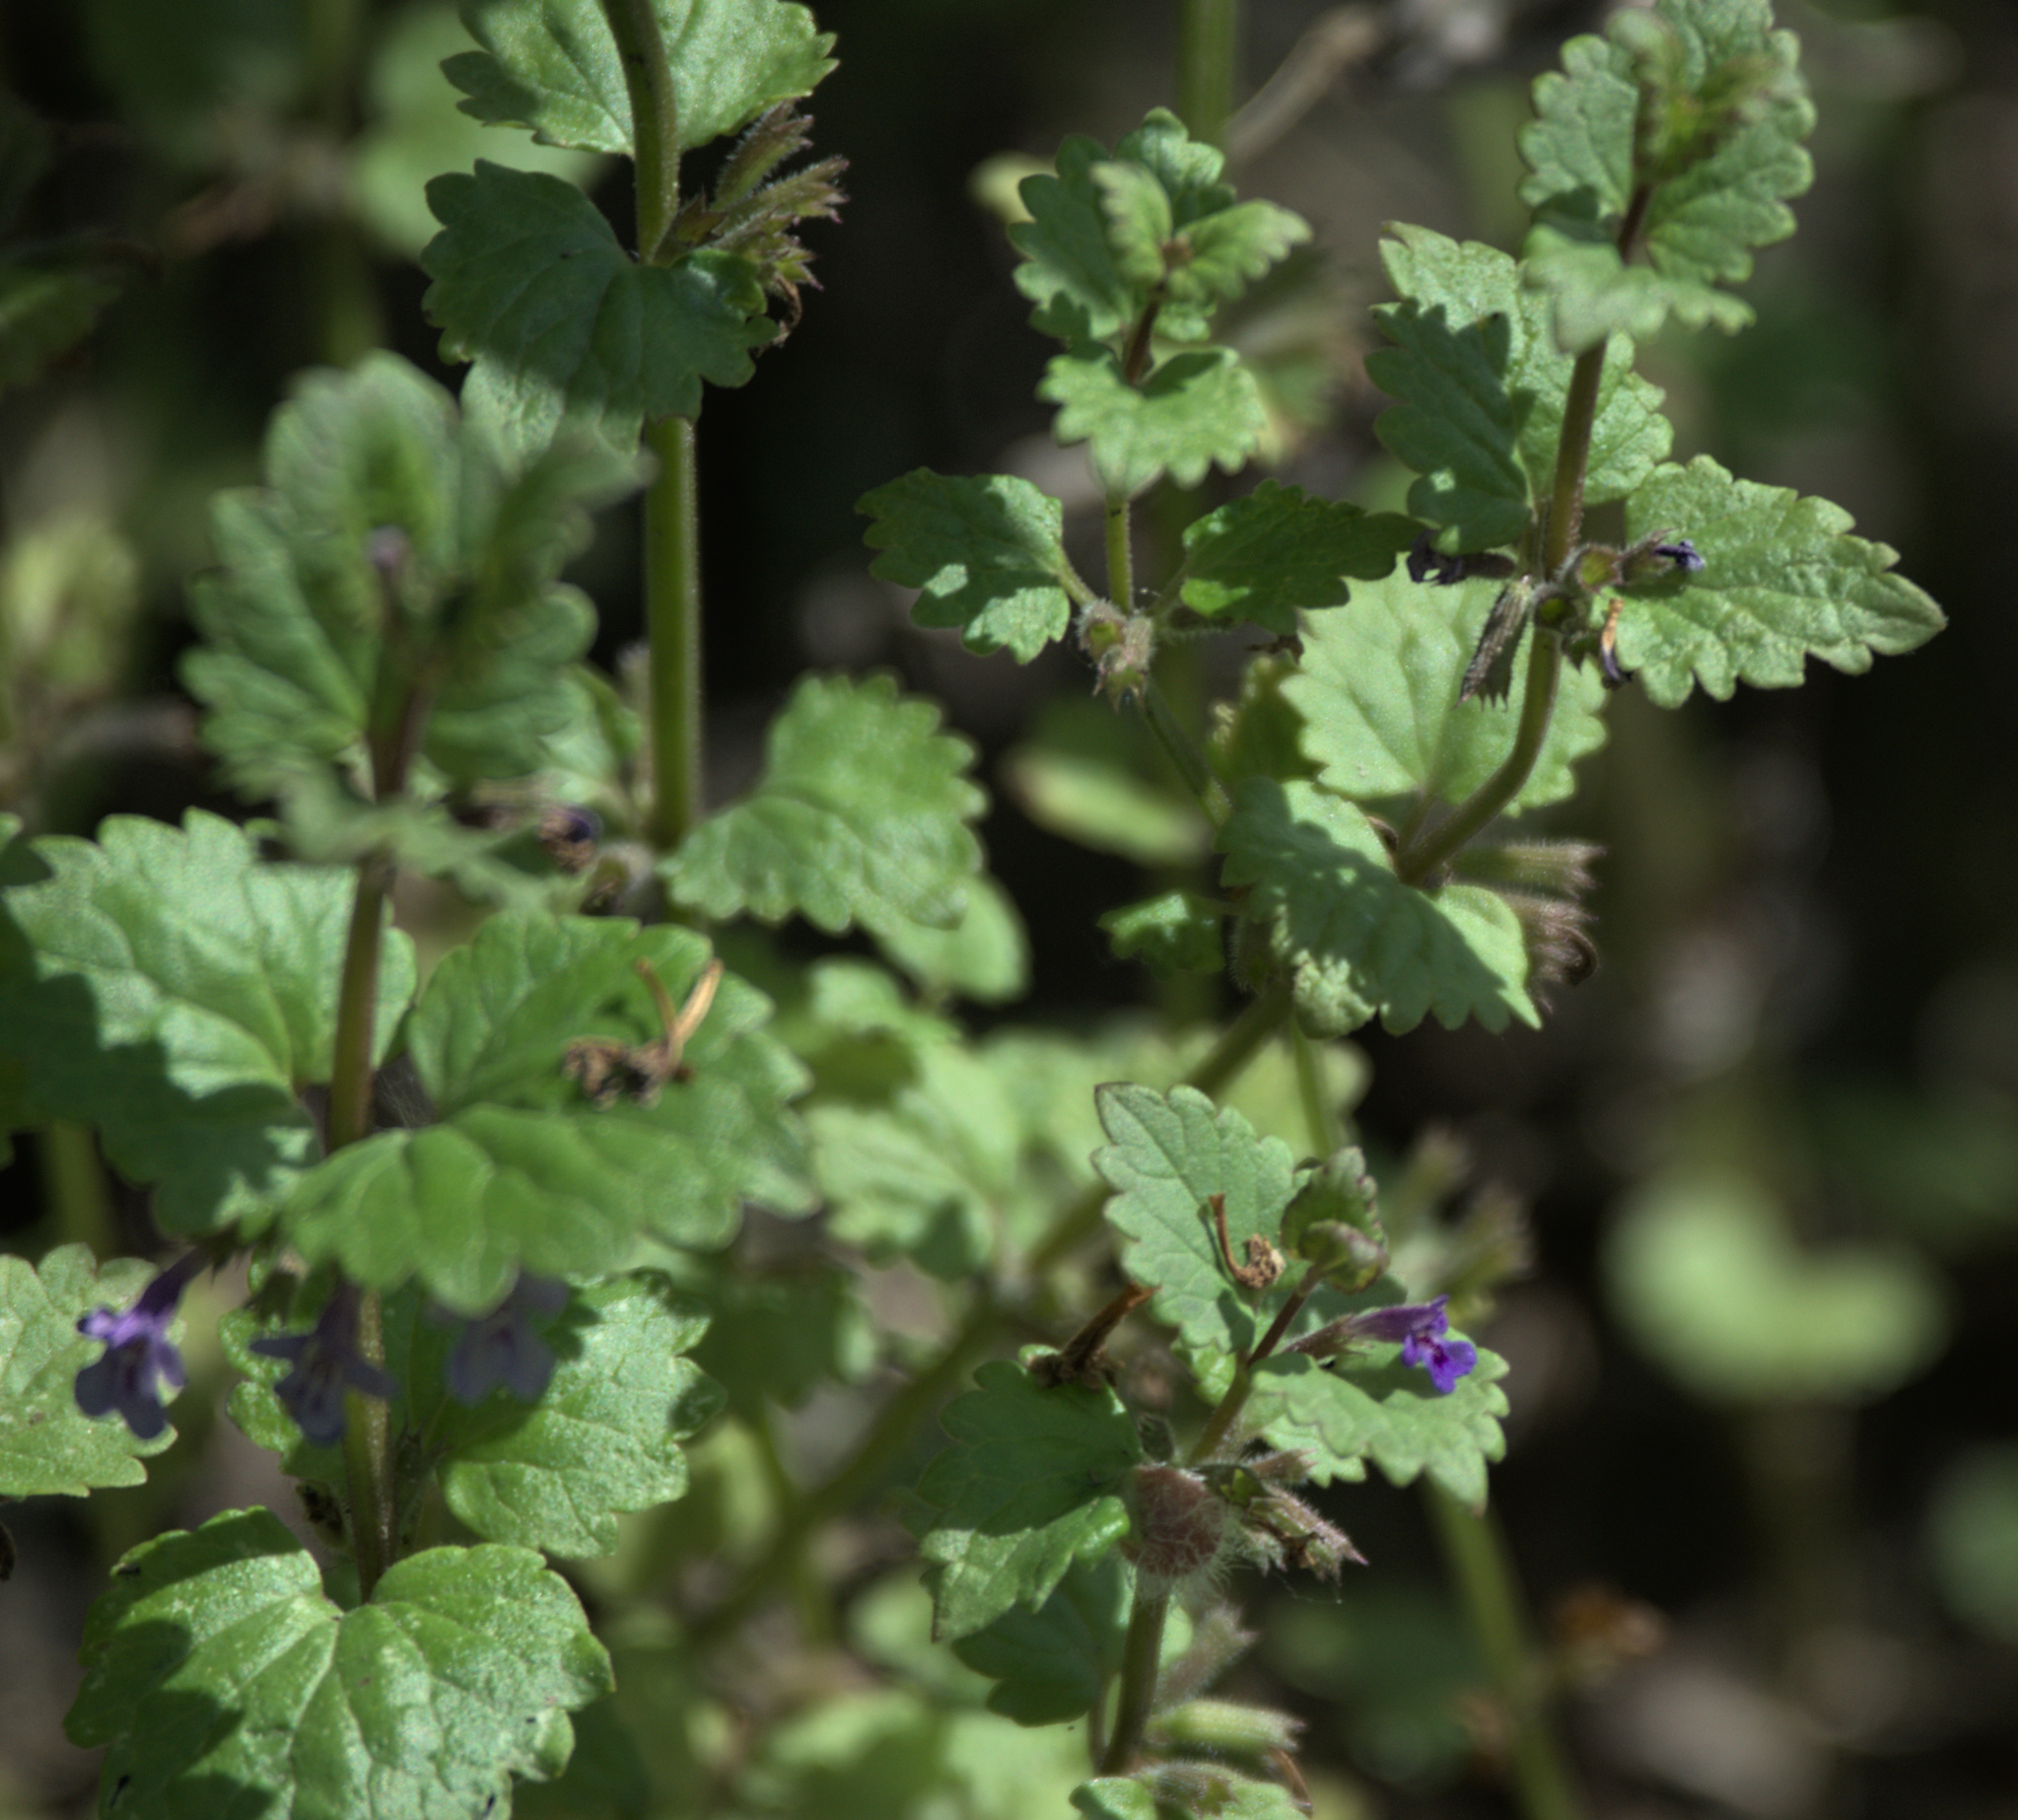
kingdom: Plantae
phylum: Tracheophyta
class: Magnoliopsida
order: Lamiales
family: Lamiaceae
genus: Glechoma
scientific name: Glechoma hederacea
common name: Ground ivy
